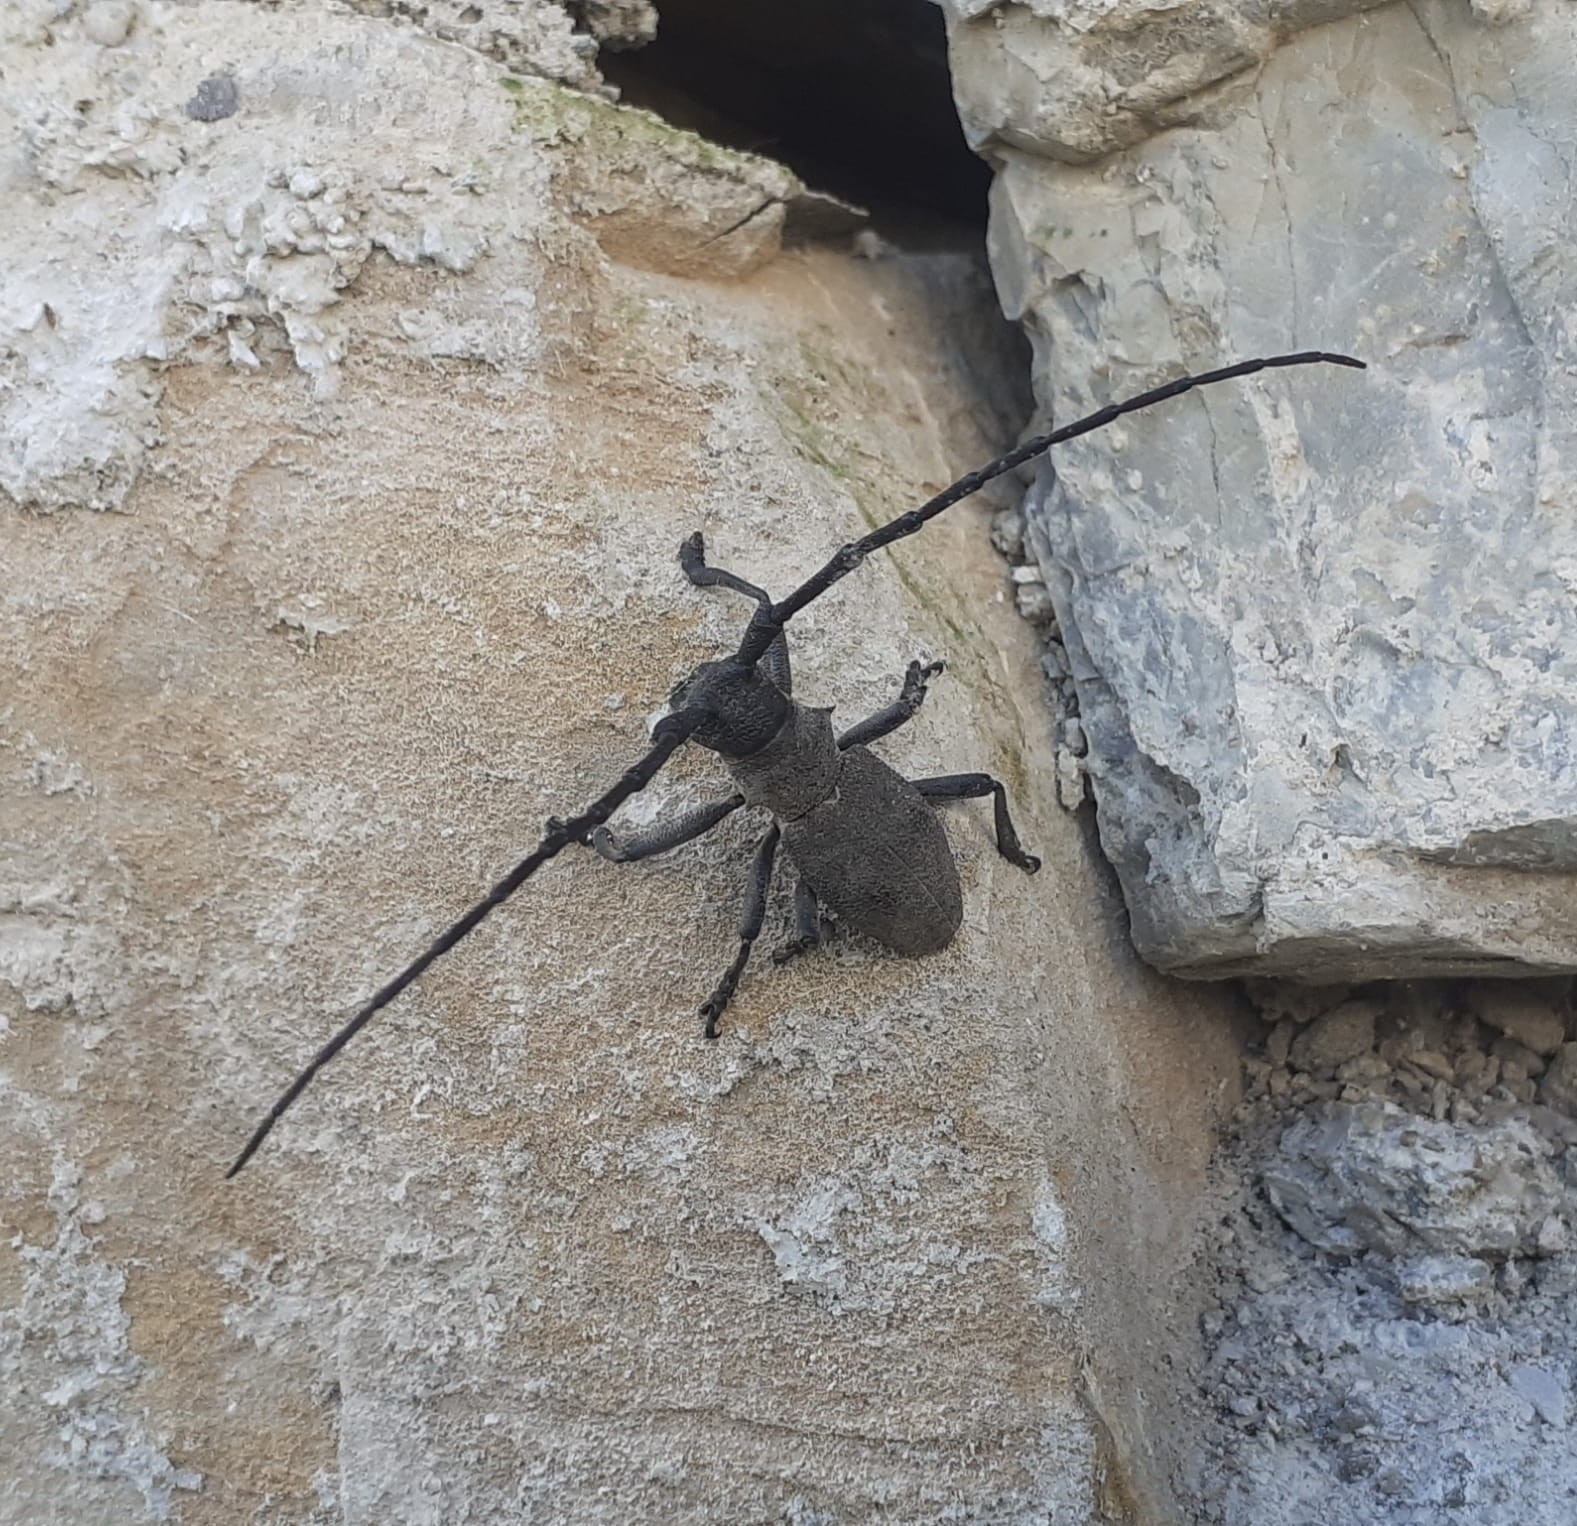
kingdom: Animalia
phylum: Arthropoda
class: Insecta
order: Coleoptera
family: Cerambycidae
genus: Morimus
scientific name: Morimus asper
